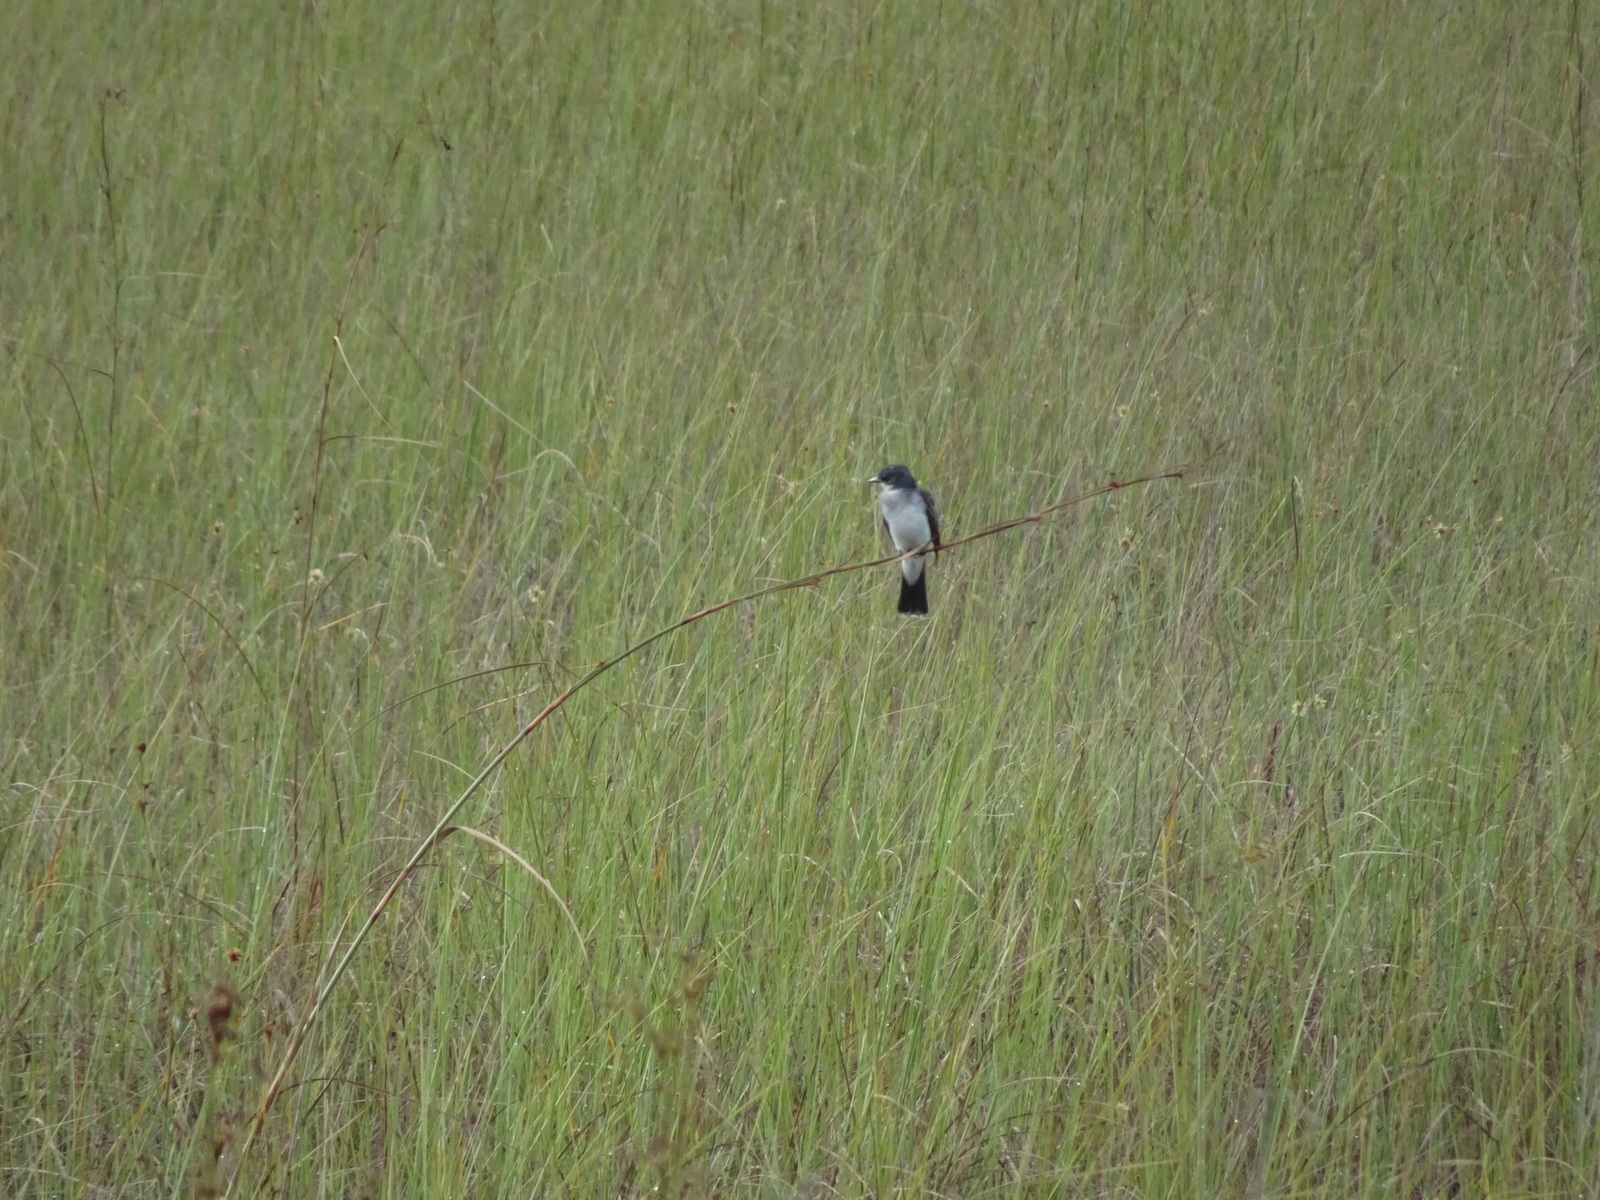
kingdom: Animalia
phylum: Chordata
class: Aves
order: Passeriformes
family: Tyrannidae
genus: Tyrannus
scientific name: Tyrannus tyrannus
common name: Eastern kingbird
